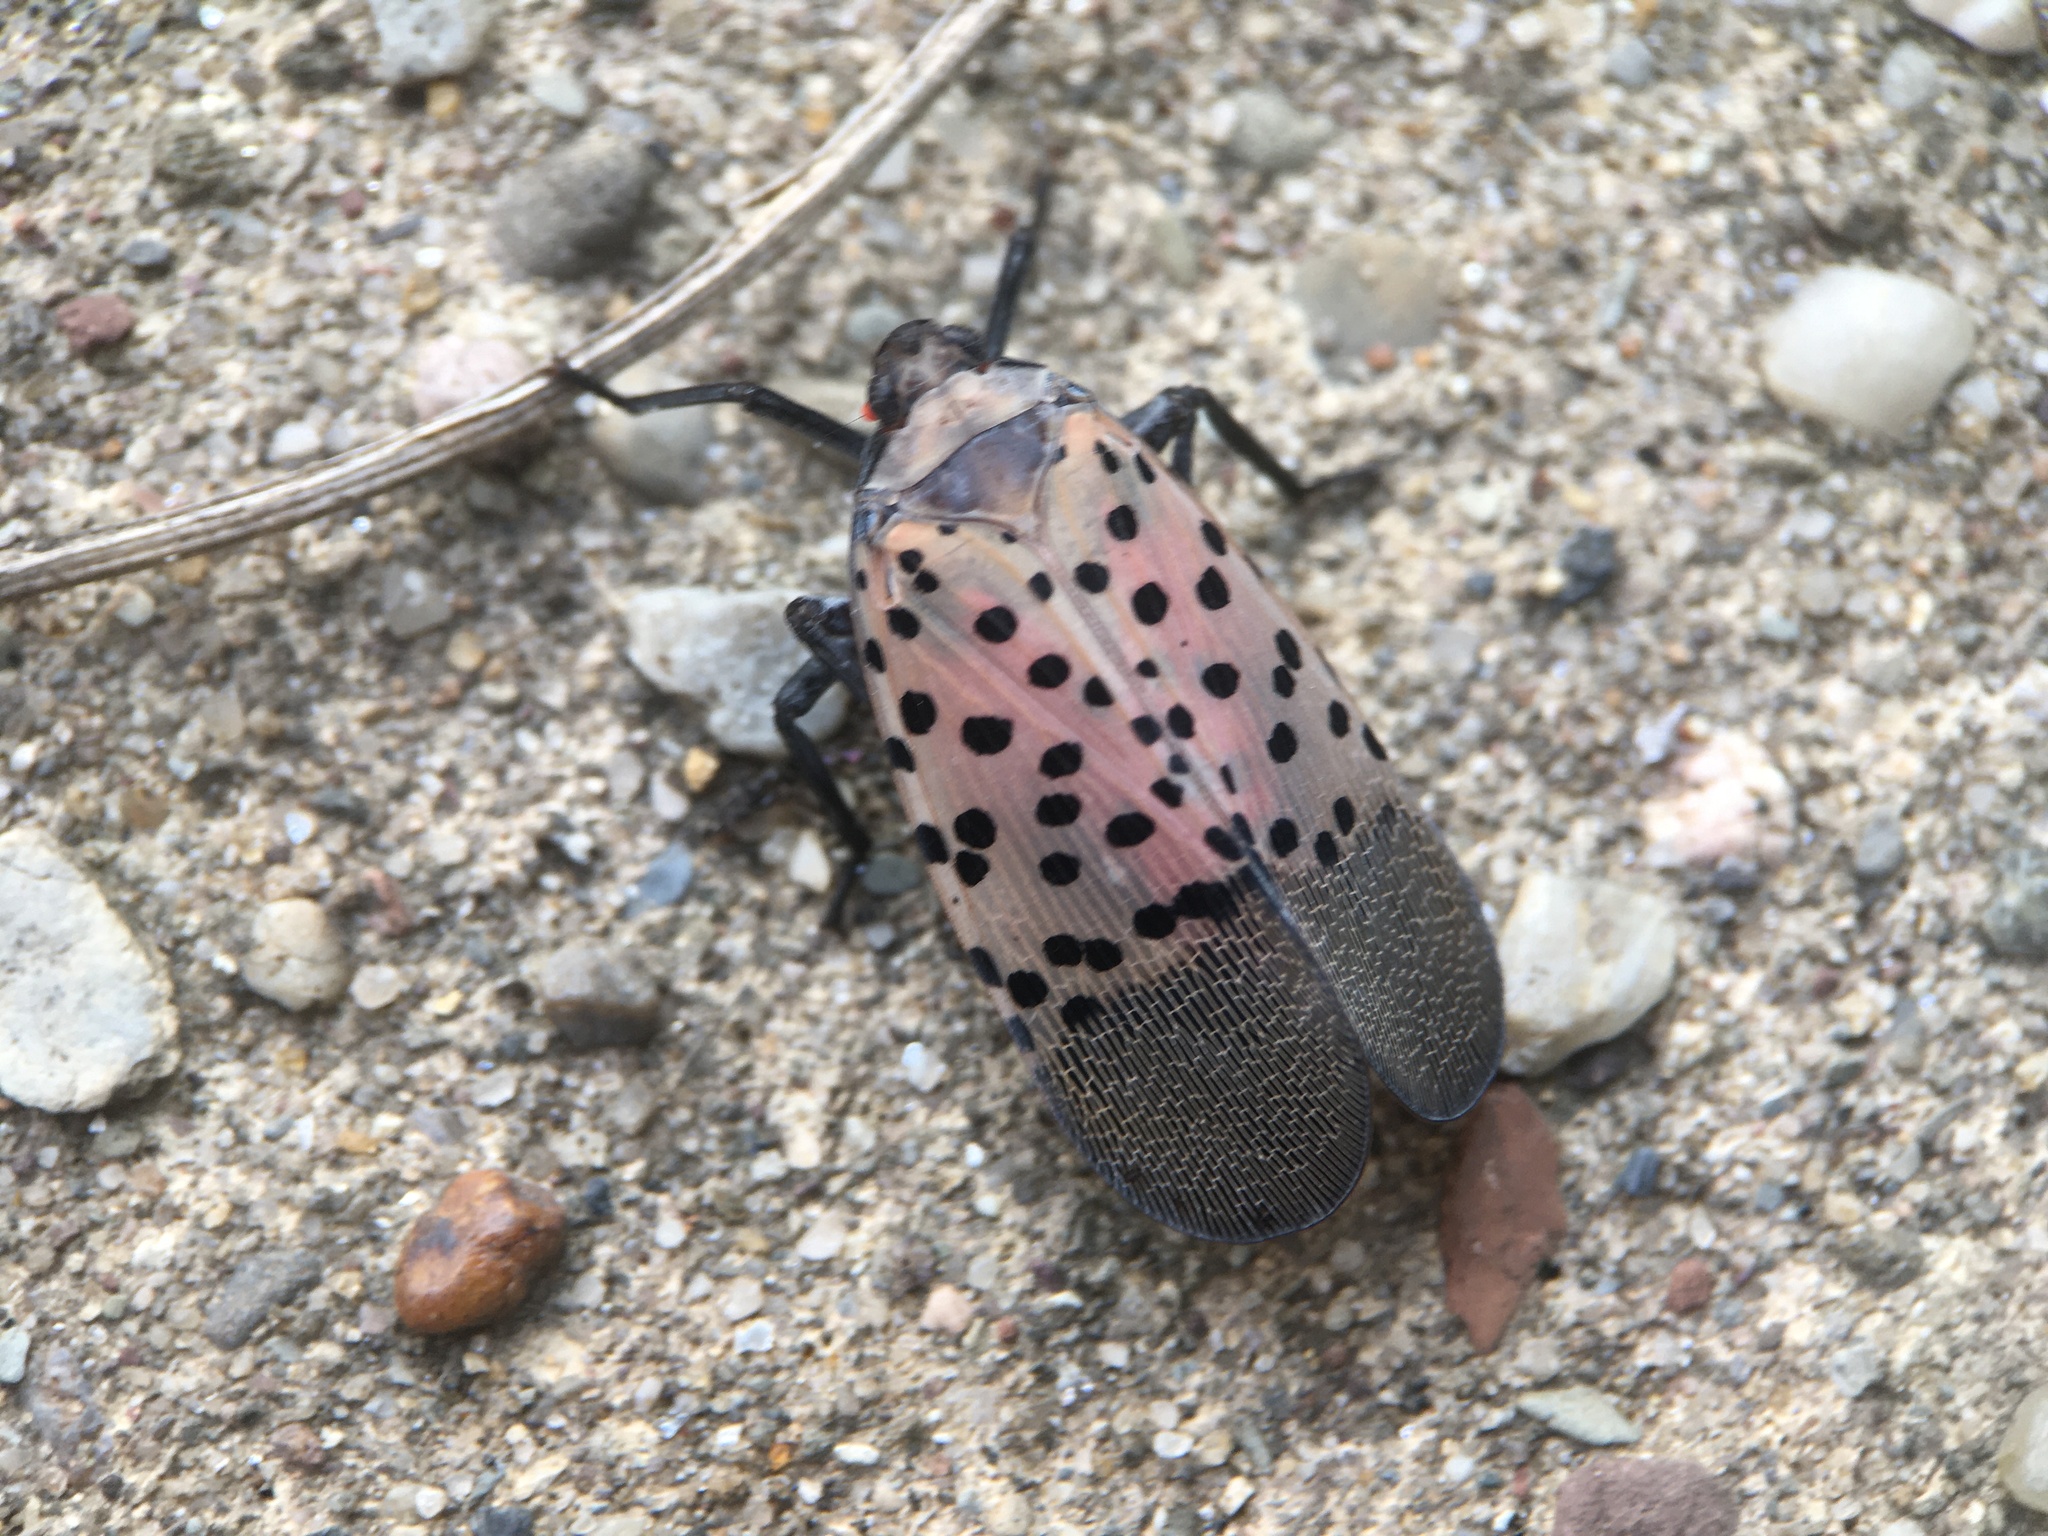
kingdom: Animalia
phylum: Arthropoda
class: Insecta
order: Hemiptera
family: Fulgoridae
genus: Lycorma
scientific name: Lycorma delicatula
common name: Spotted lanternfly
